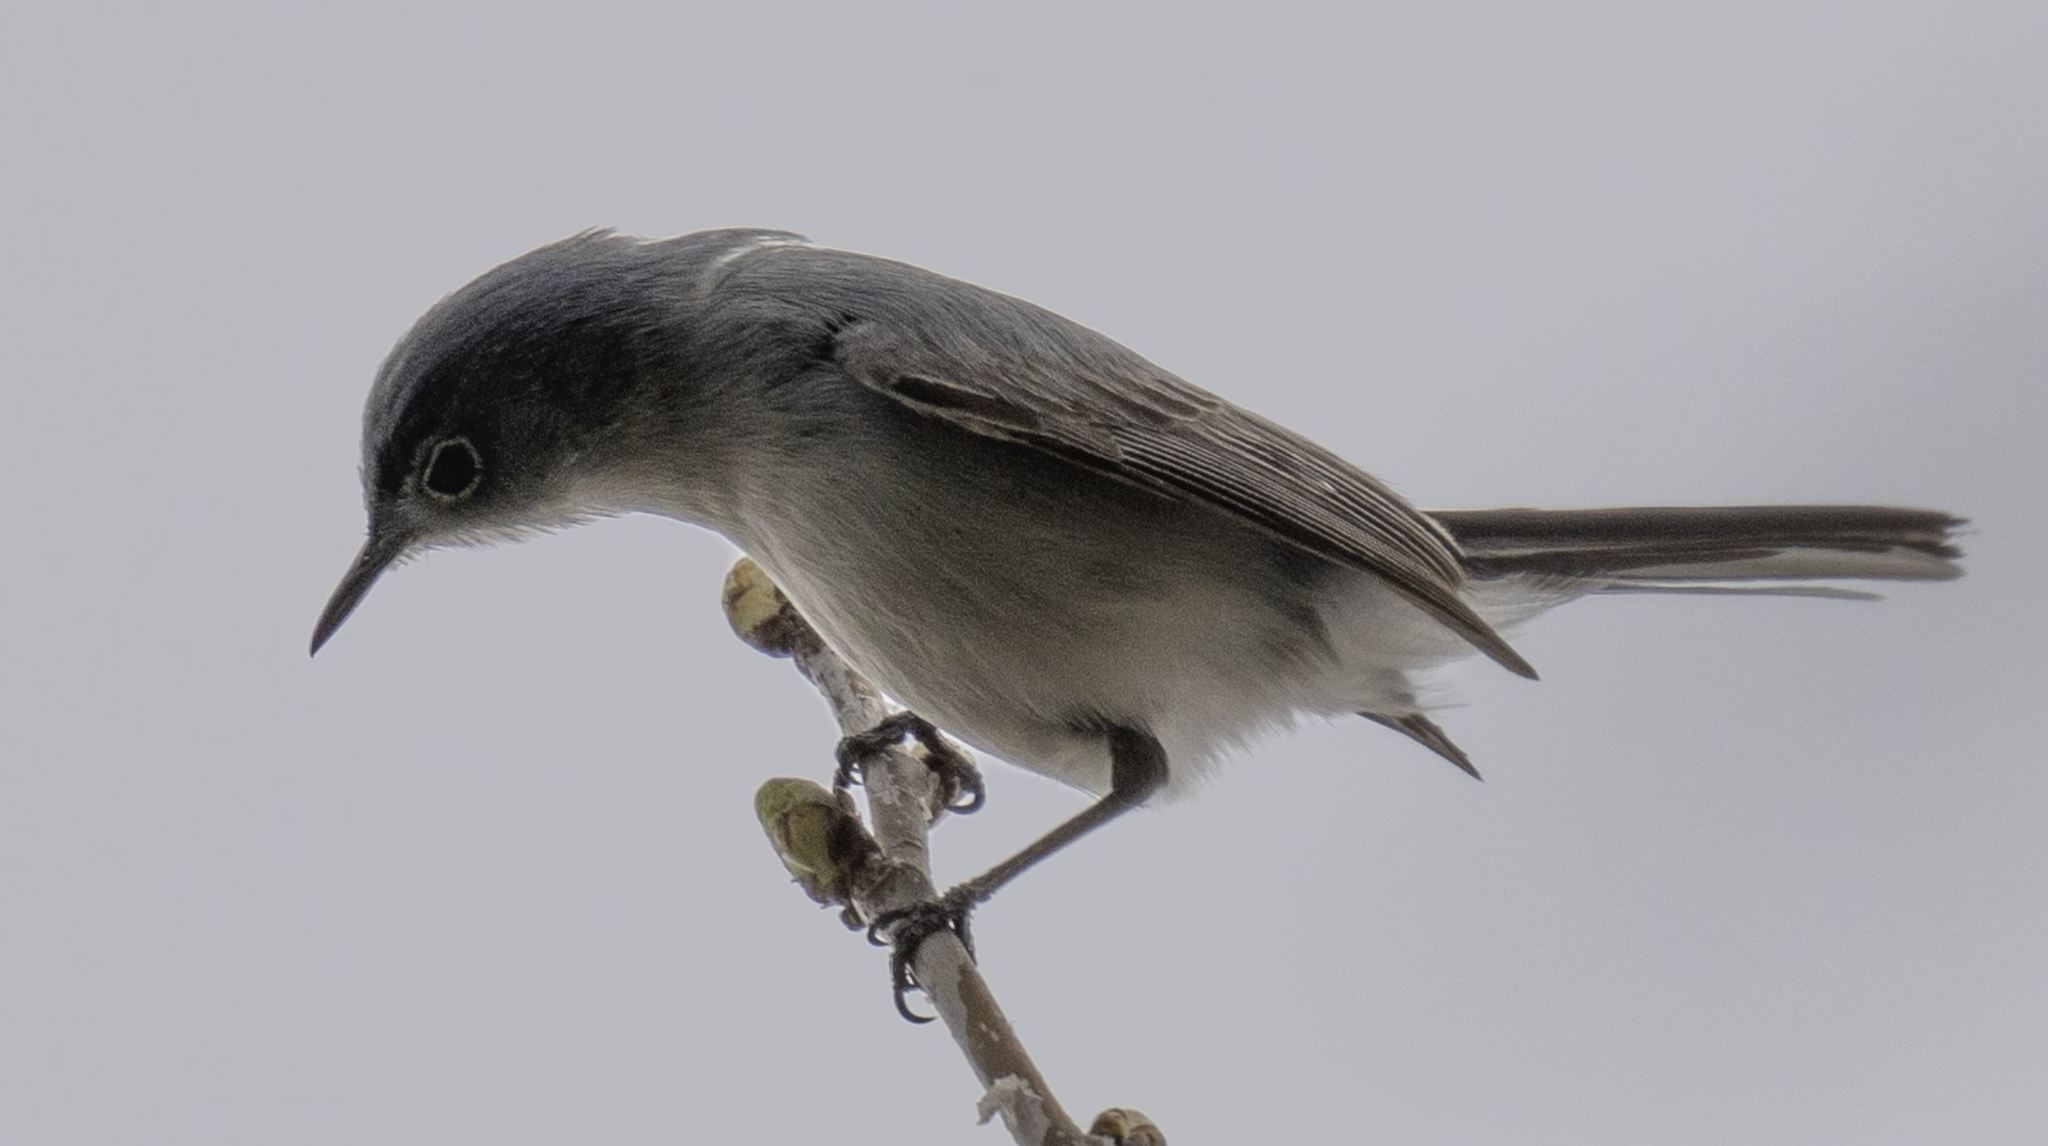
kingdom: Animalia
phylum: Chordata
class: Aves
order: Passeriformes
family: Polioptilidae
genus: Polioptila
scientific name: Polioptila caerulea
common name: Blue-gray gnatcatcher
